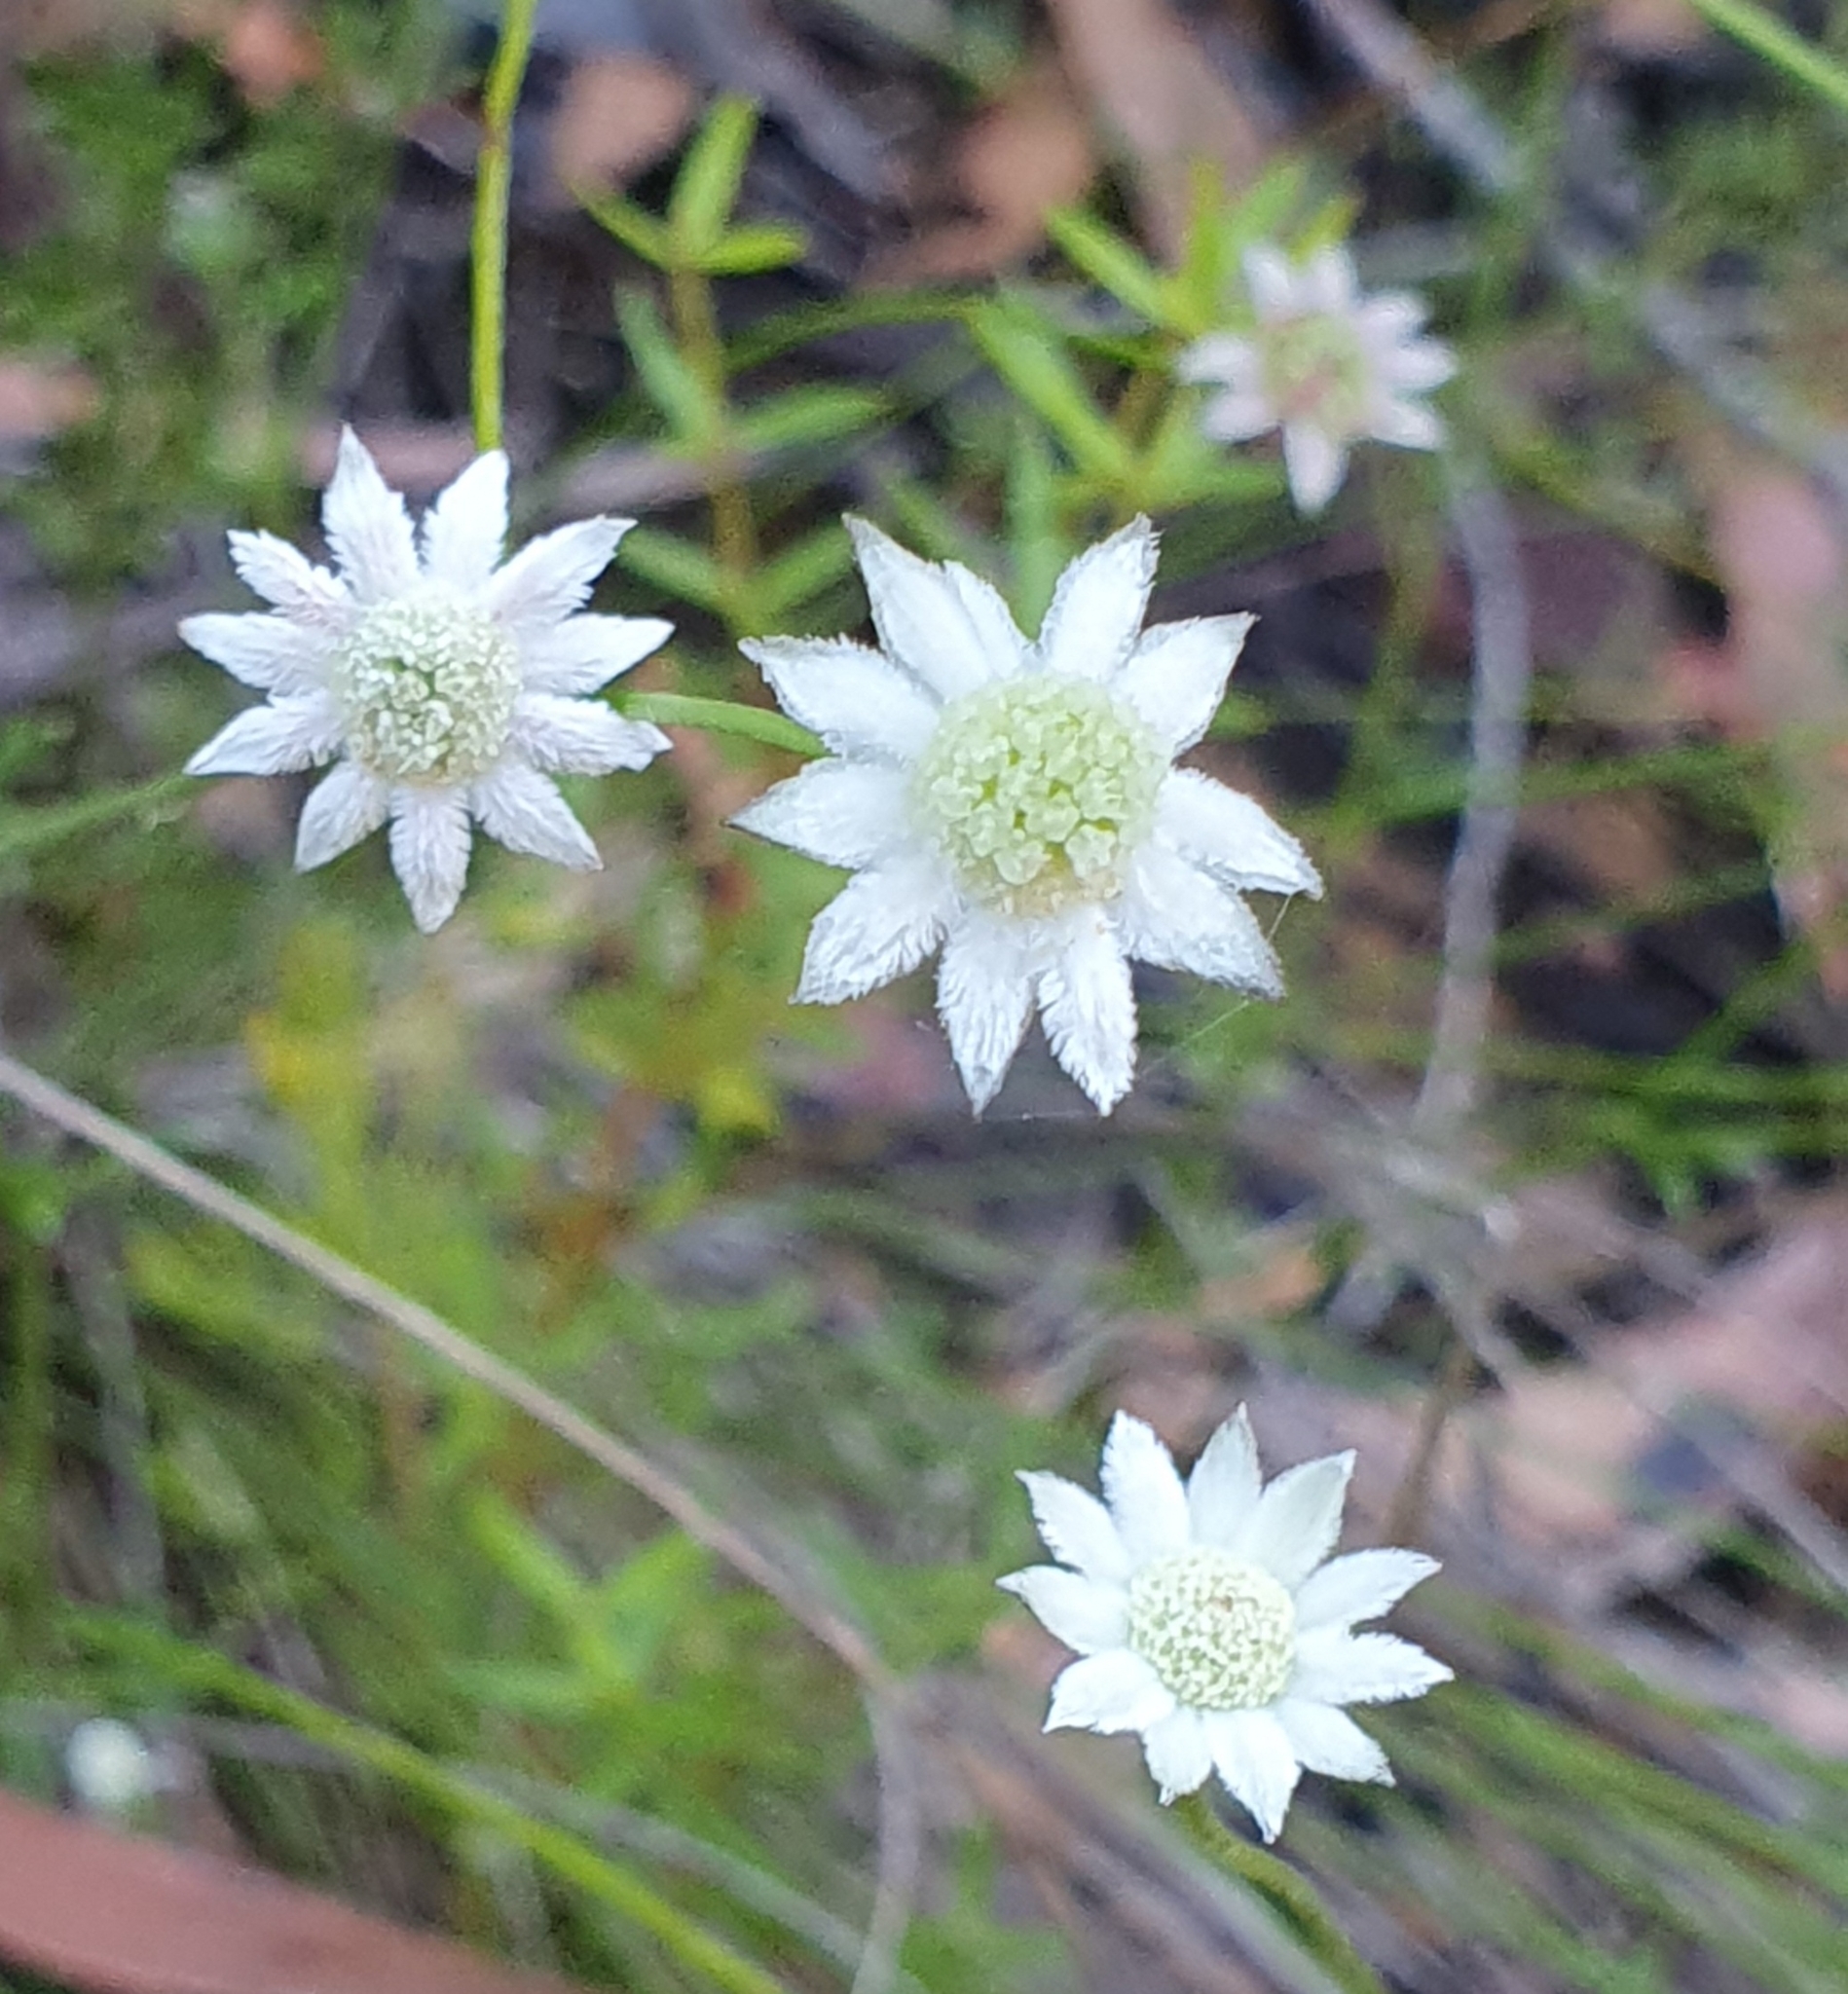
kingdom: Plantae
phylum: Tracheophyta
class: Magnoliopsida
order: Apiales
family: Apiaceae
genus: Actinotus
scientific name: Actinotus minor
